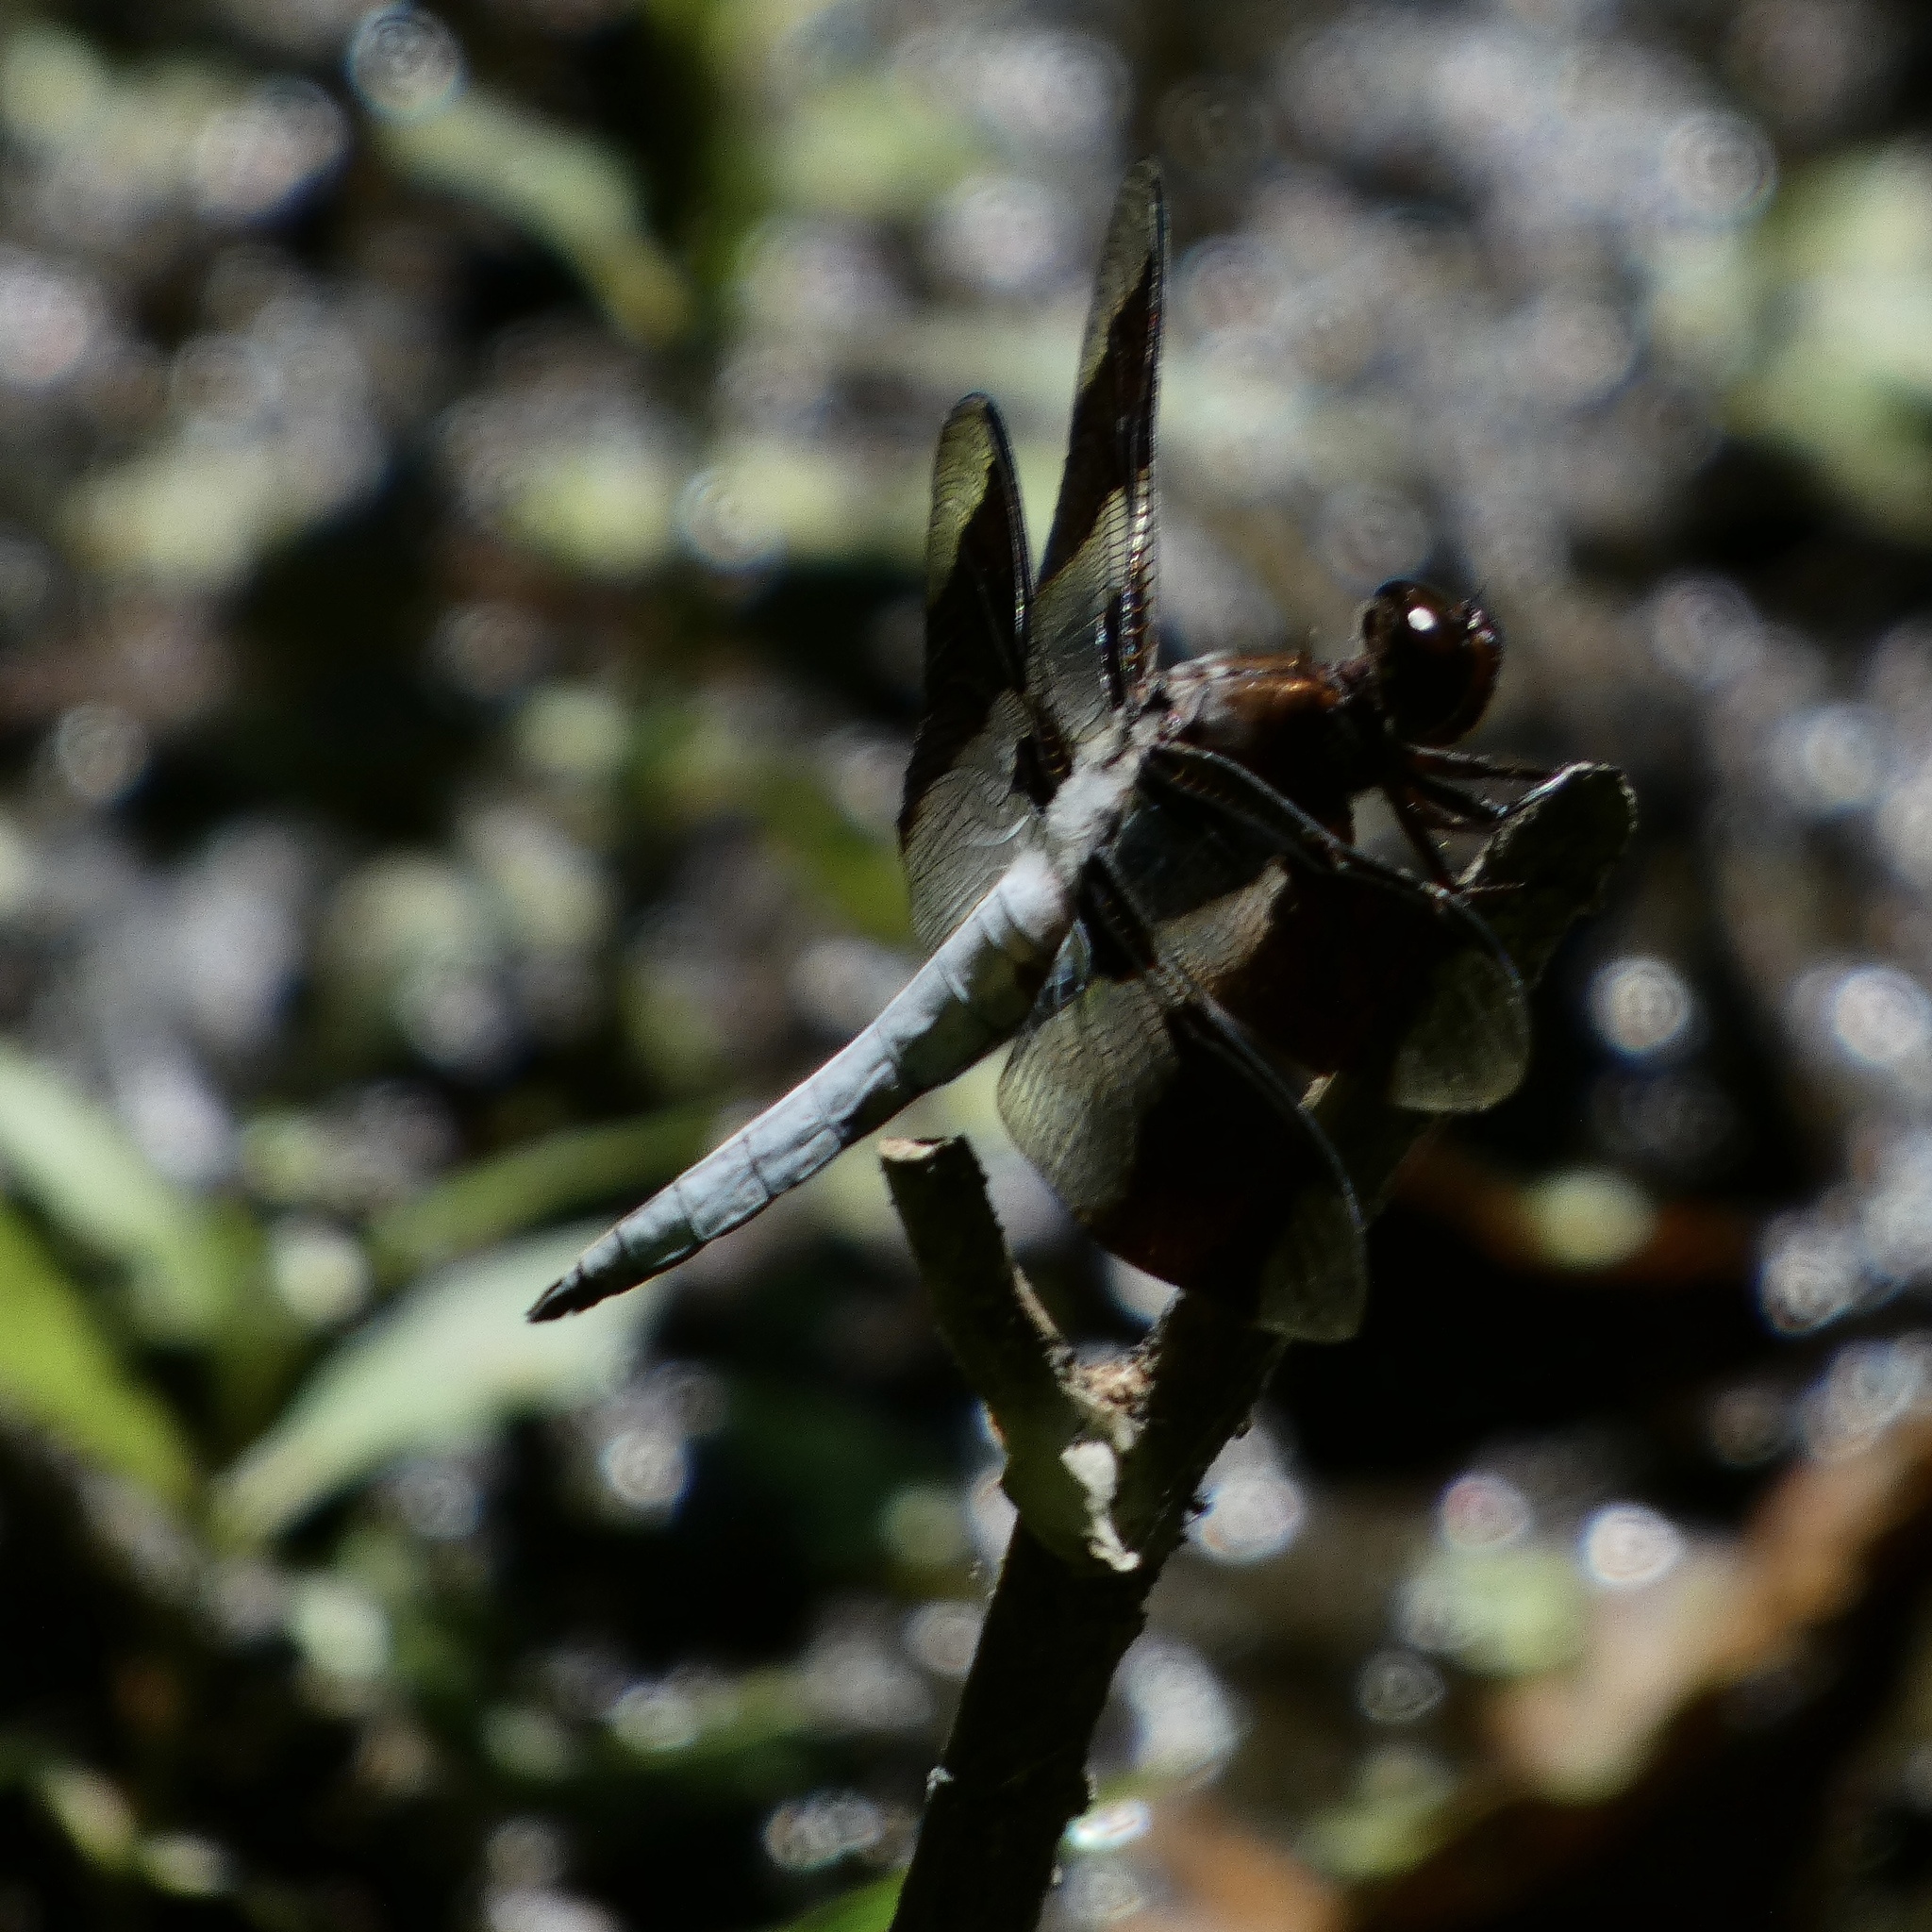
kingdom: Animalia
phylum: Arthropoda
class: Insecta
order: Odonata
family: Libellulidae
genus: Plathemis
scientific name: Plathemis lydia
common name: Common whitetail
